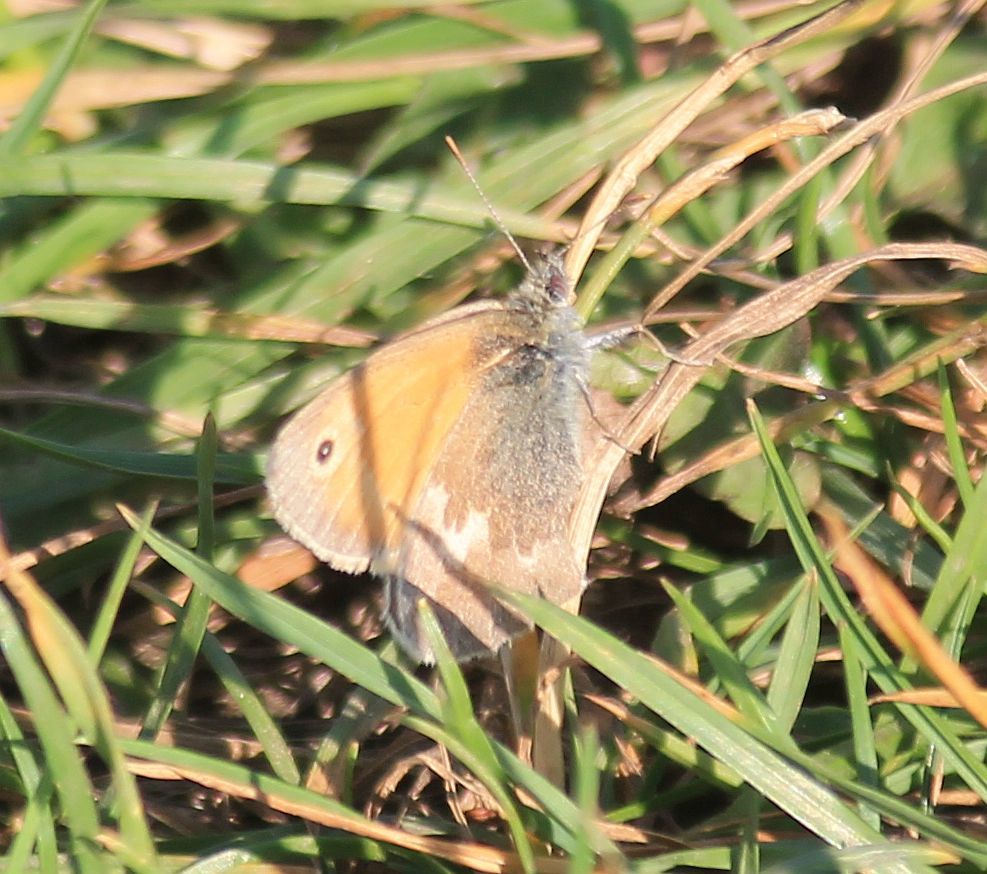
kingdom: Animalia
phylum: Arthropoda
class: Insecta
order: Lepidoptera
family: Nymphalidae
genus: Coenonympha
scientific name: Coenonympha pamphilus
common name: Small heath
